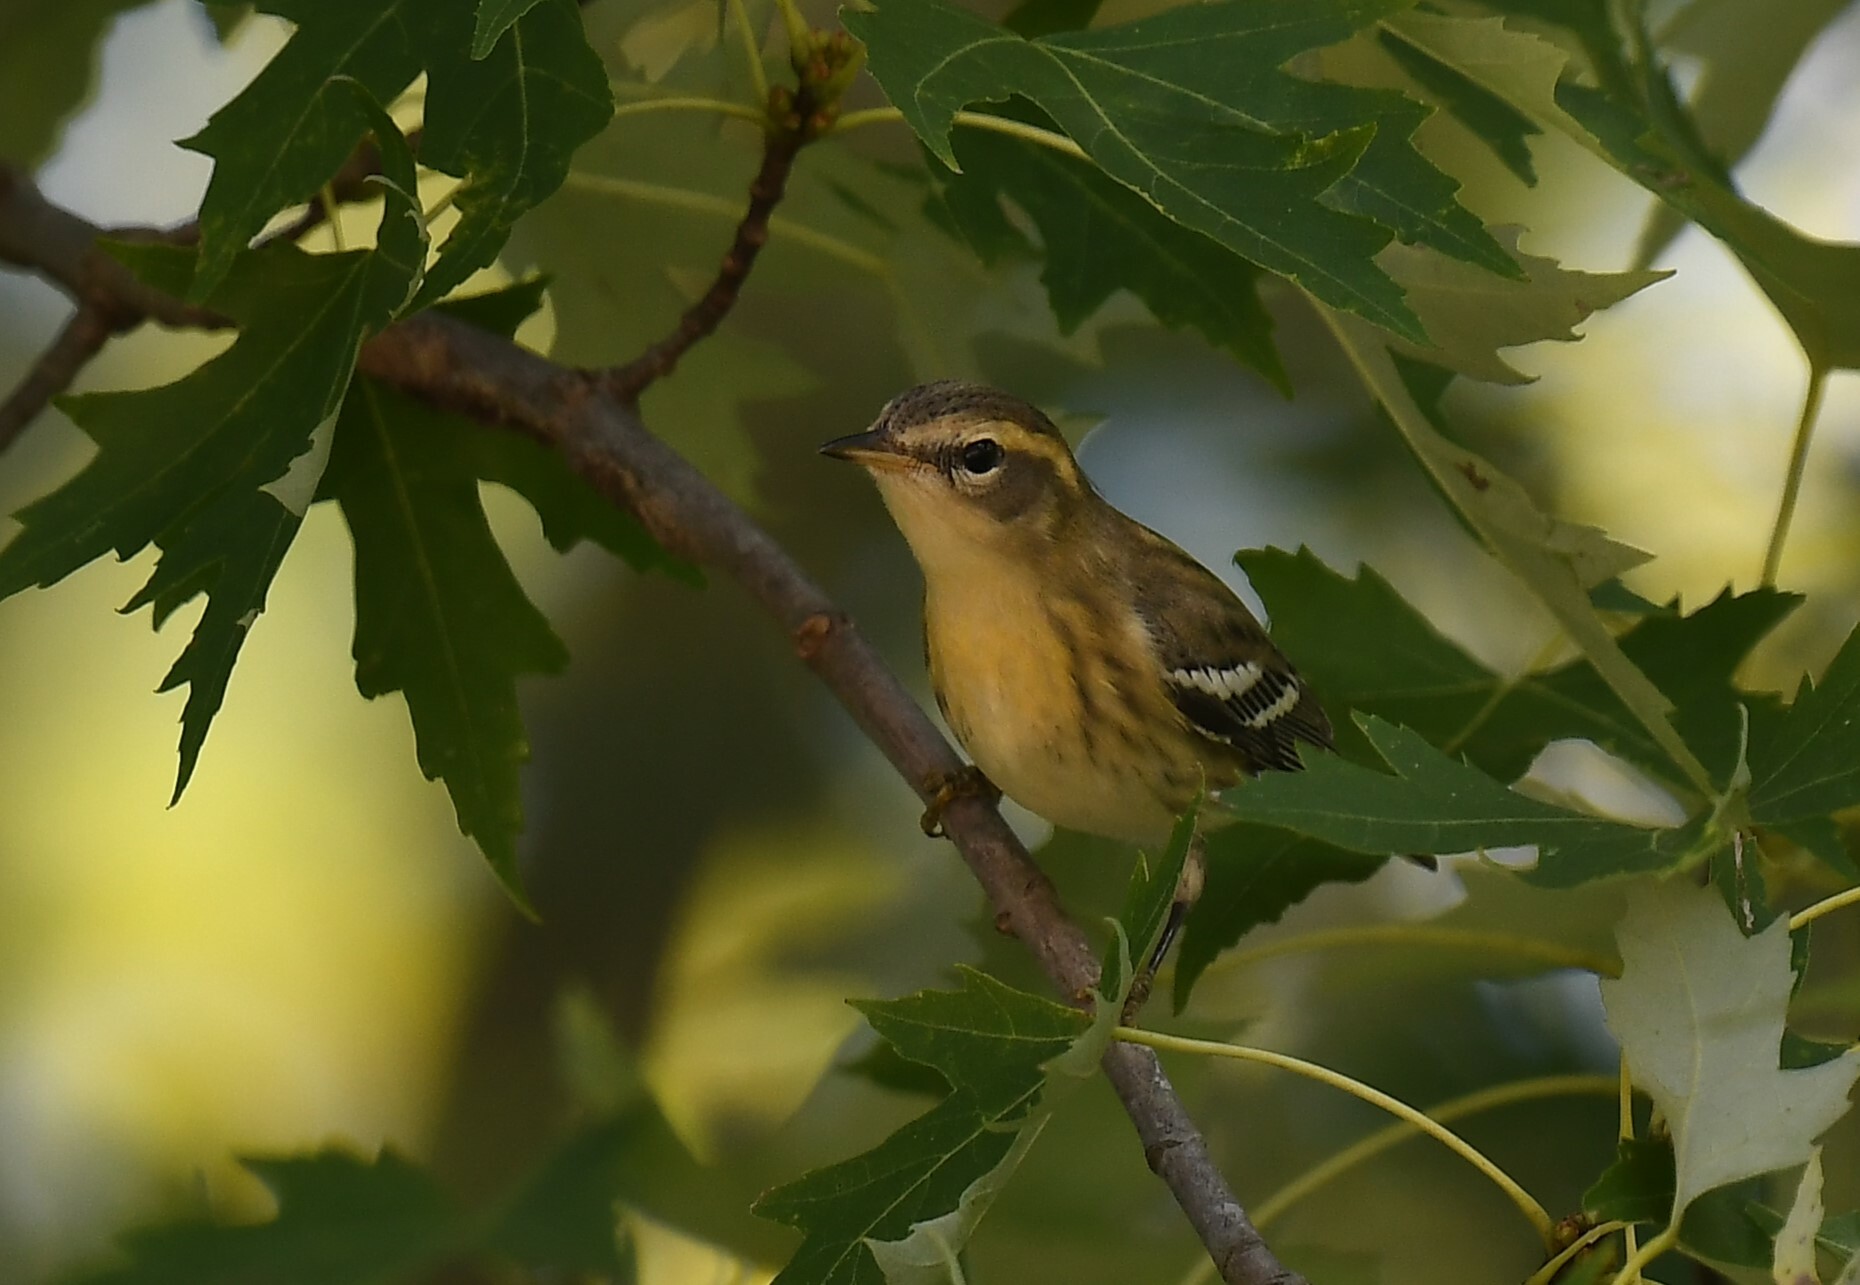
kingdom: Animalia
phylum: Chordata
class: Aves
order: Passeriformes
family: Parulidae
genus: Setophaga
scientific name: Setophaga fusca
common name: Blackburnian warbler
